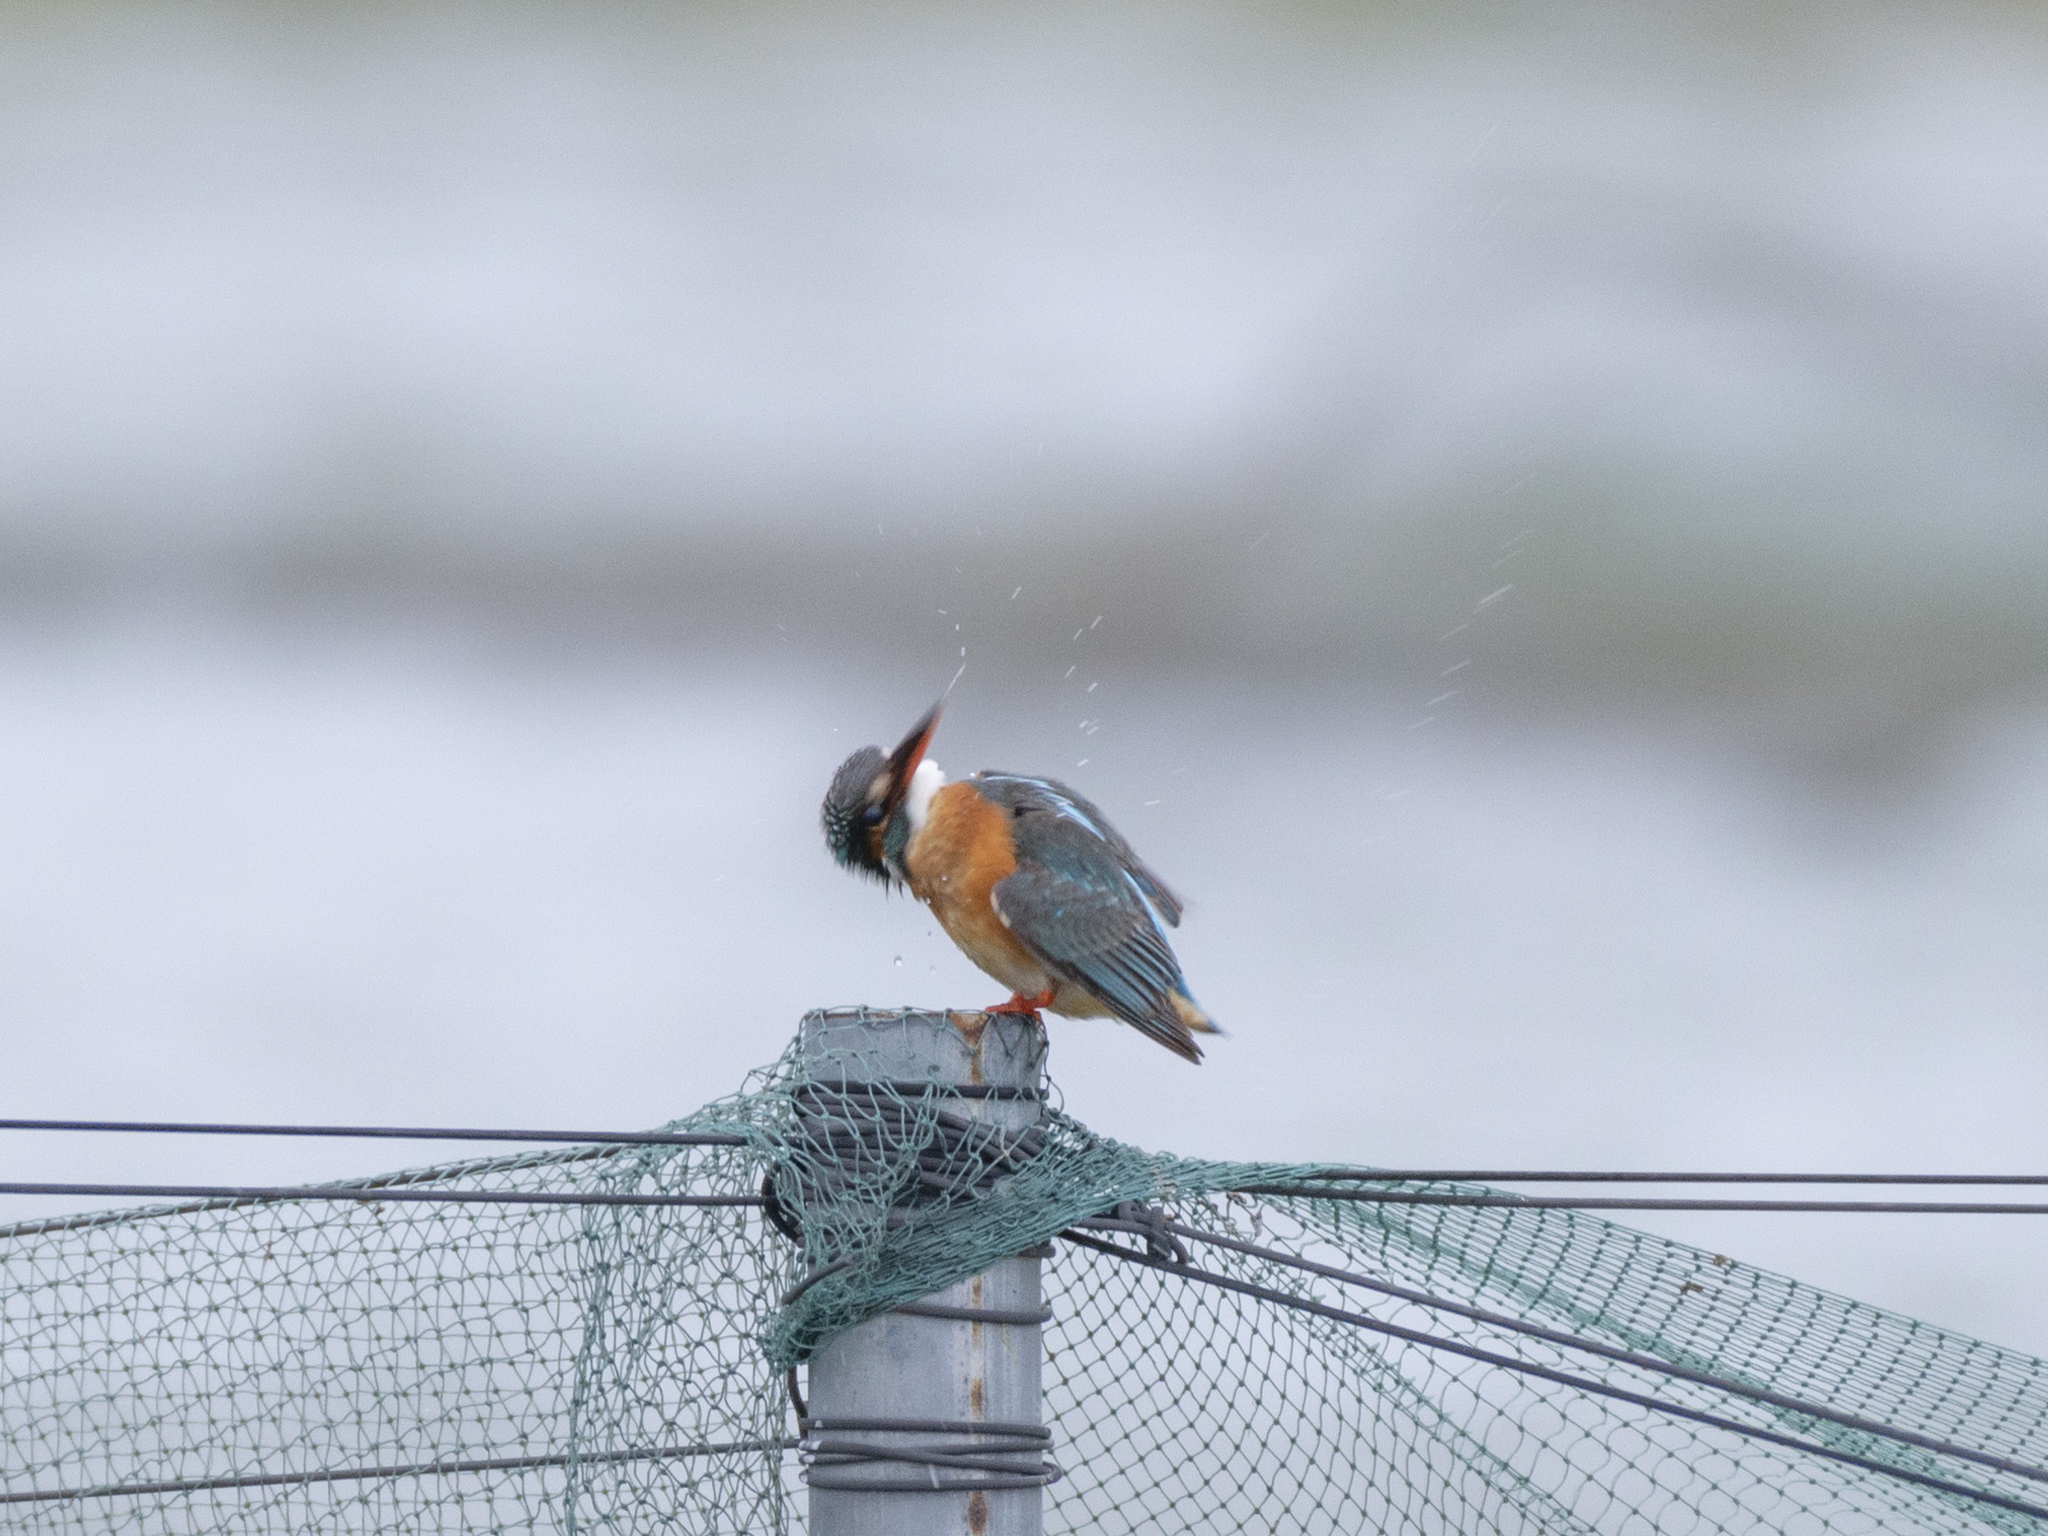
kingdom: Animalia
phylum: Chordata
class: Aves
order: Coraciiformes
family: Alcedinidae
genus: Alcedo
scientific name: Alcedo atthis
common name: Common kingfisher
